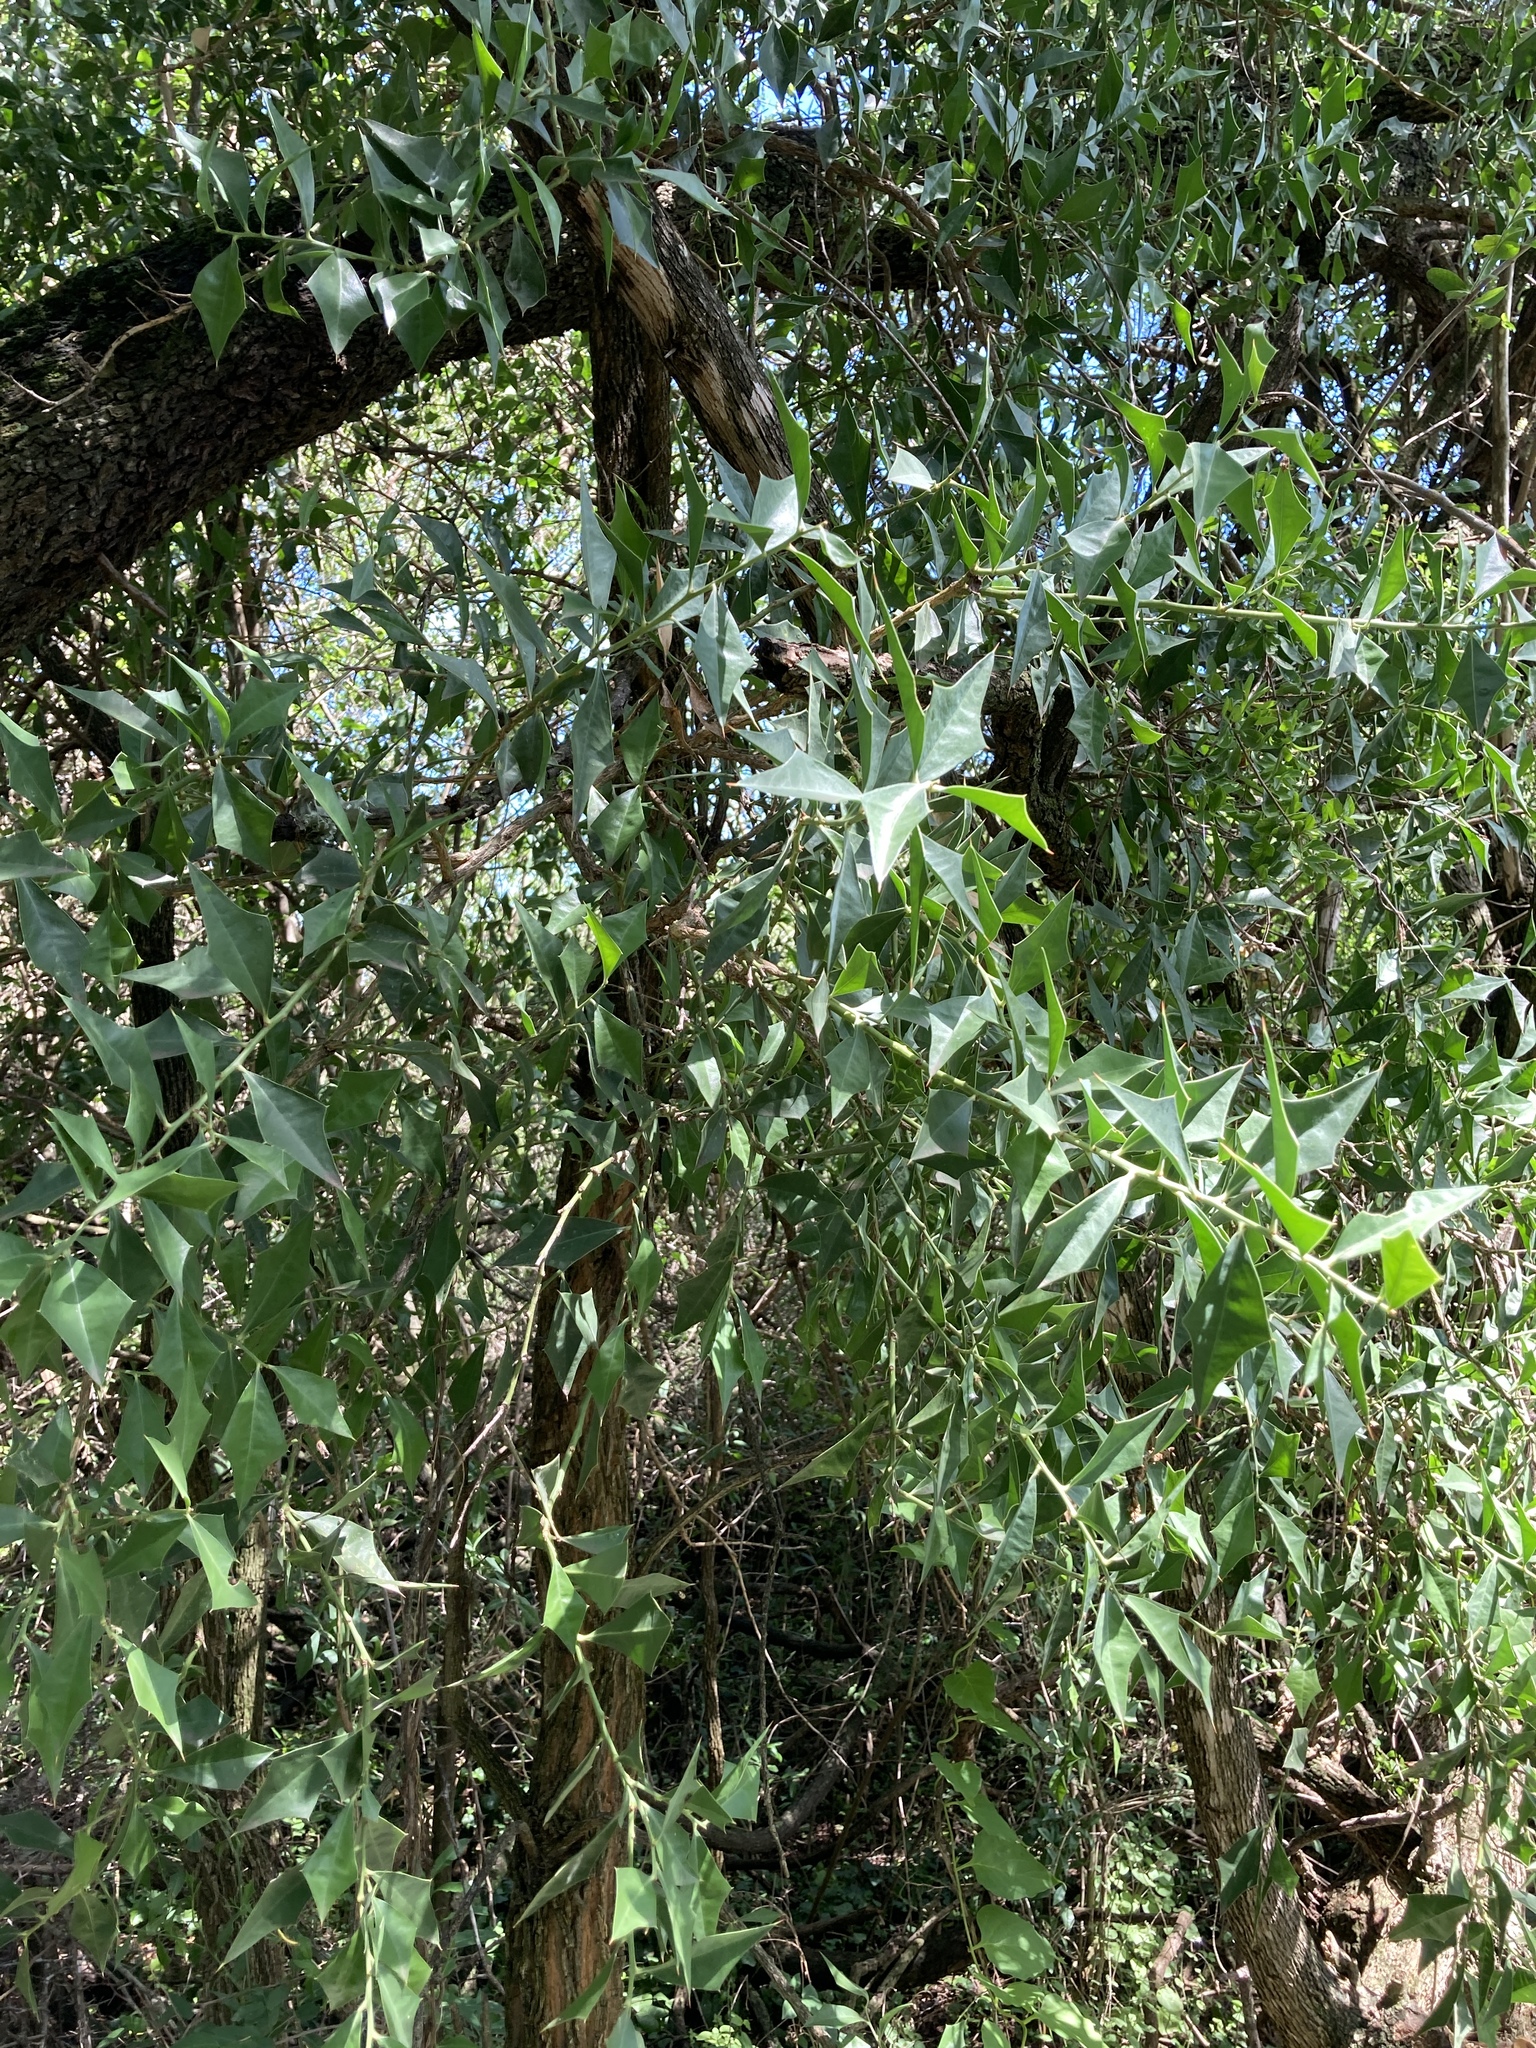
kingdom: Plantae
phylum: Tracheophyta
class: Magnoliopsida
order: Santalales
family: Cervantesiaceae
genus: Jodina
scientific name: Jodina rhombifolia
